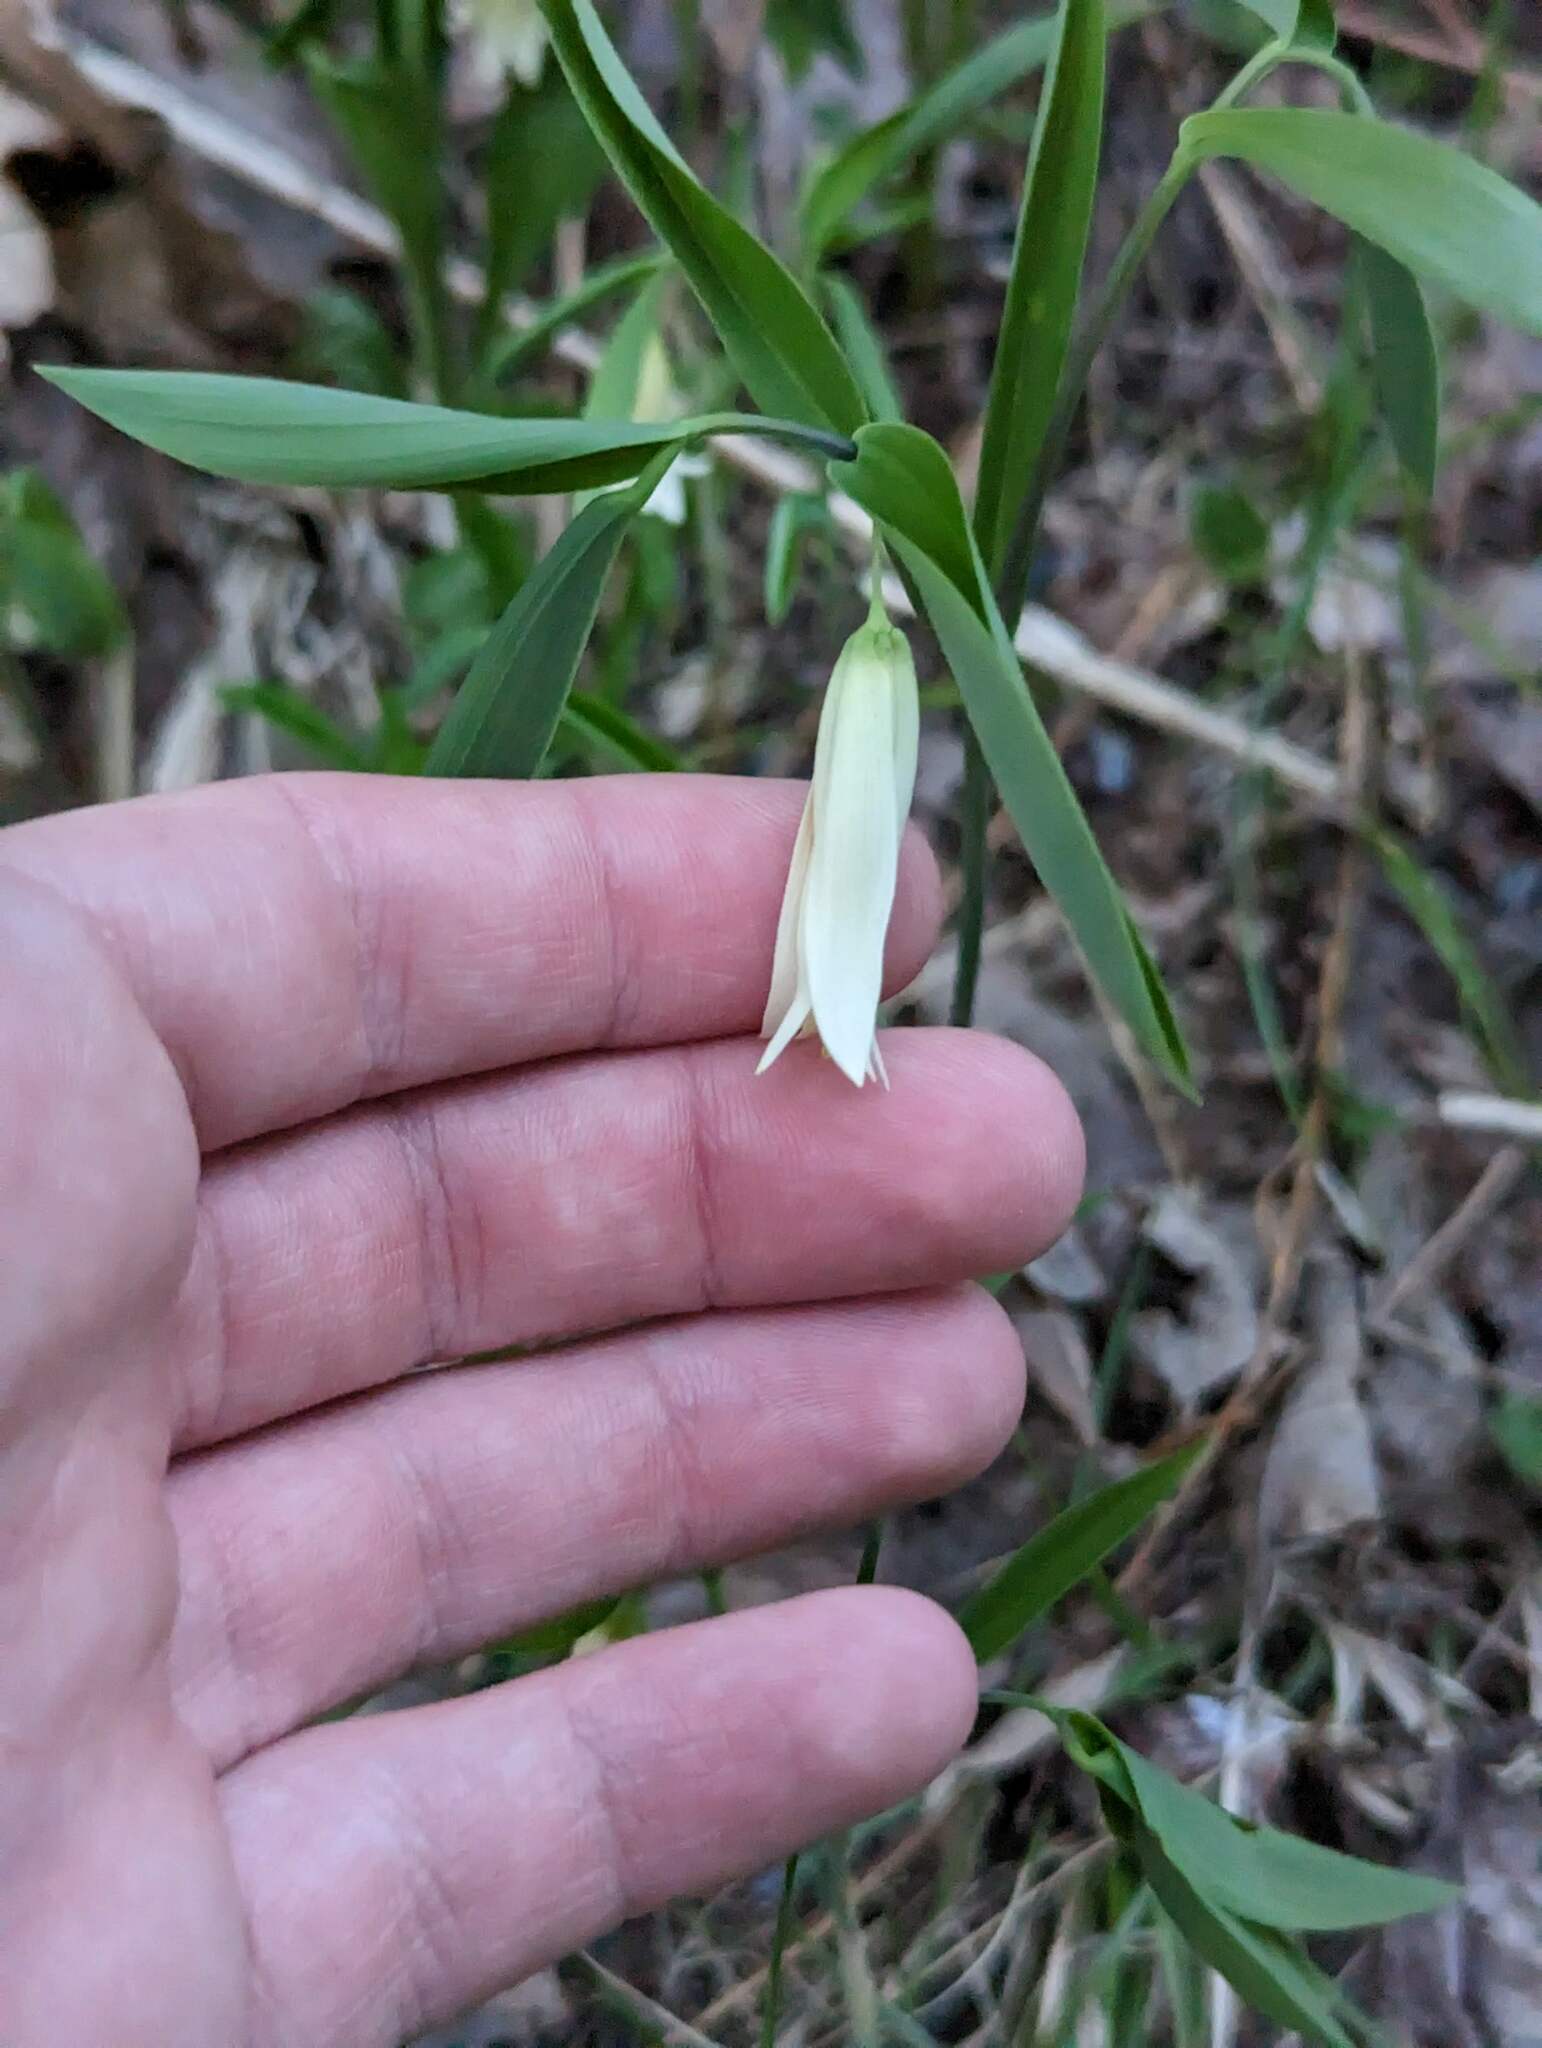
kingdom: Plantae
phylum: Tracheophyta
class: Liliopsida
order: Liliales
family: Colchicaceae
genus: Uvularia
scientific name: Uvularia sessilifolia
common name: Straw-lily
